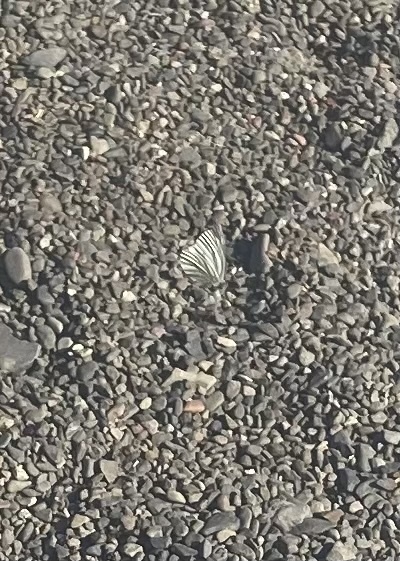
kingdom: Animalia
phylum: Arthropoda
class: Insecta
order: Lepidoptera
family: Pieridae
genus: Pieris
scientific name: Pieris napi
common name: Green-veined white
